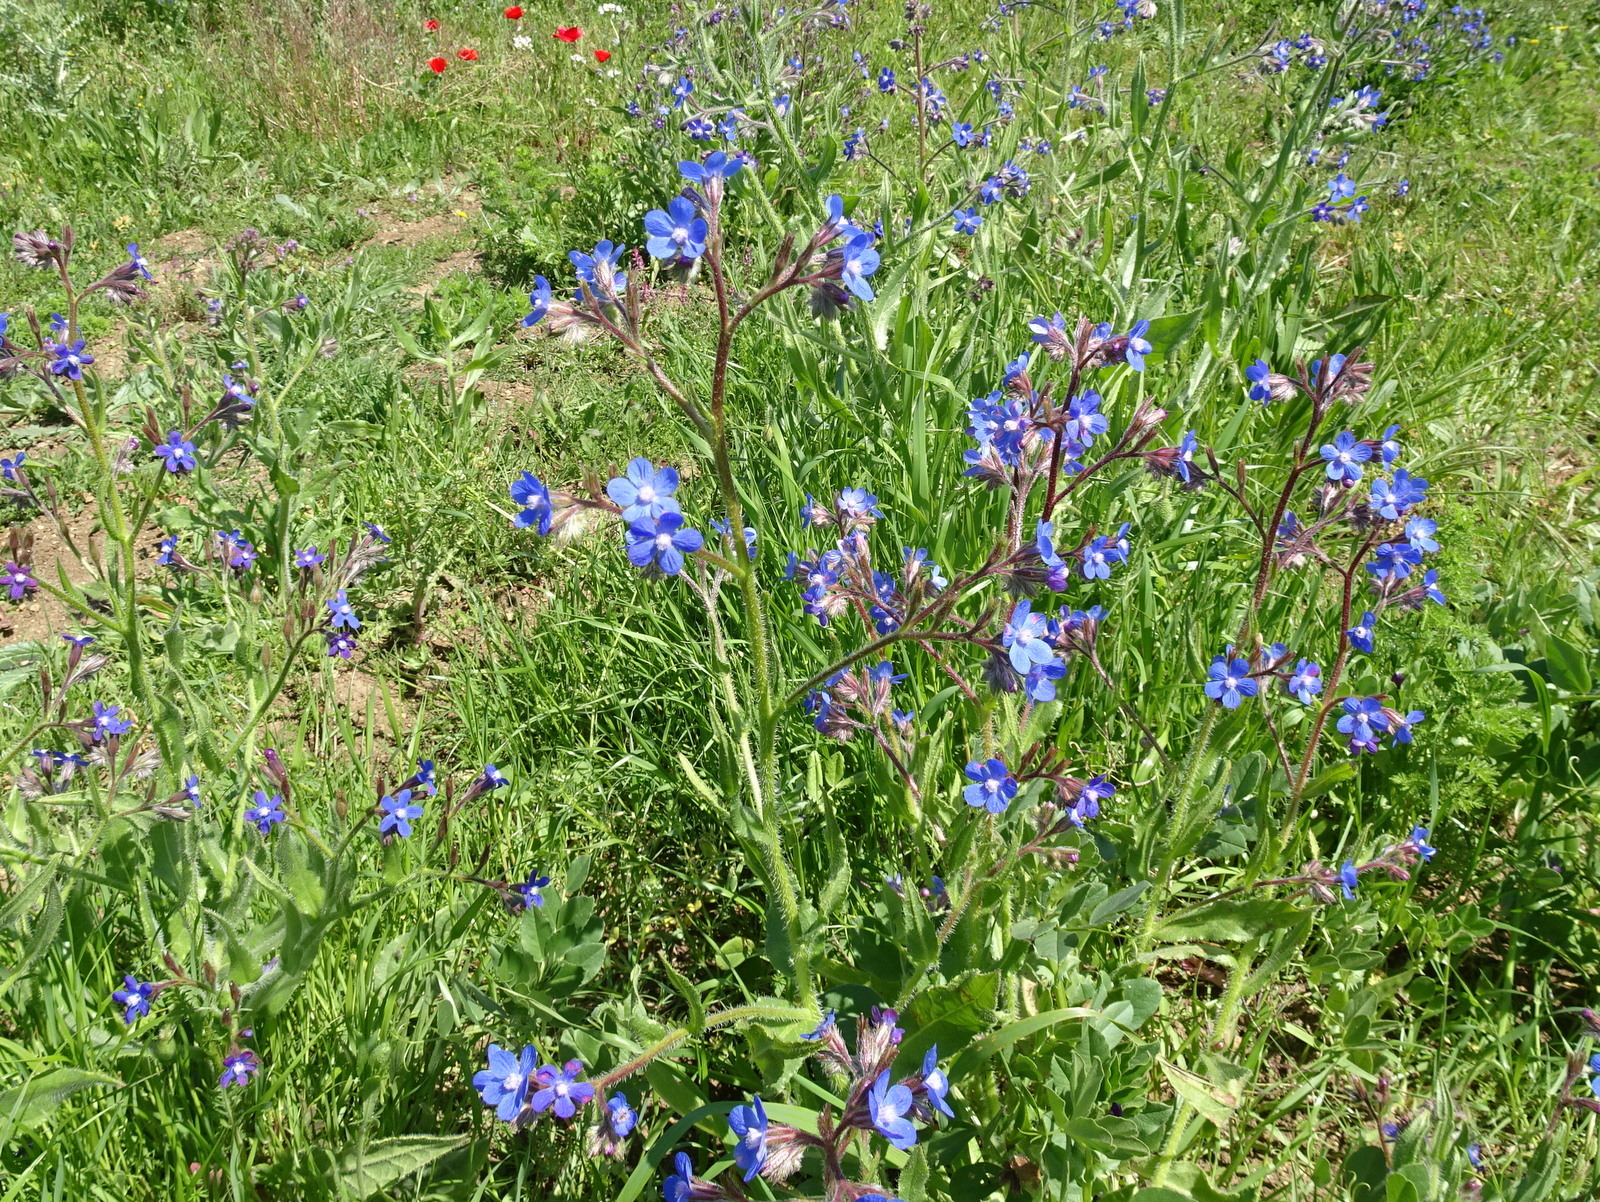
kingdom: Plantae
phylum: Tracheophyta
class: Magnoliopsida
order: Boraginales
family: Boraginaceae
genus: Anchusa
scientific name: Anchusa azurea
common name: Garden anchusa
